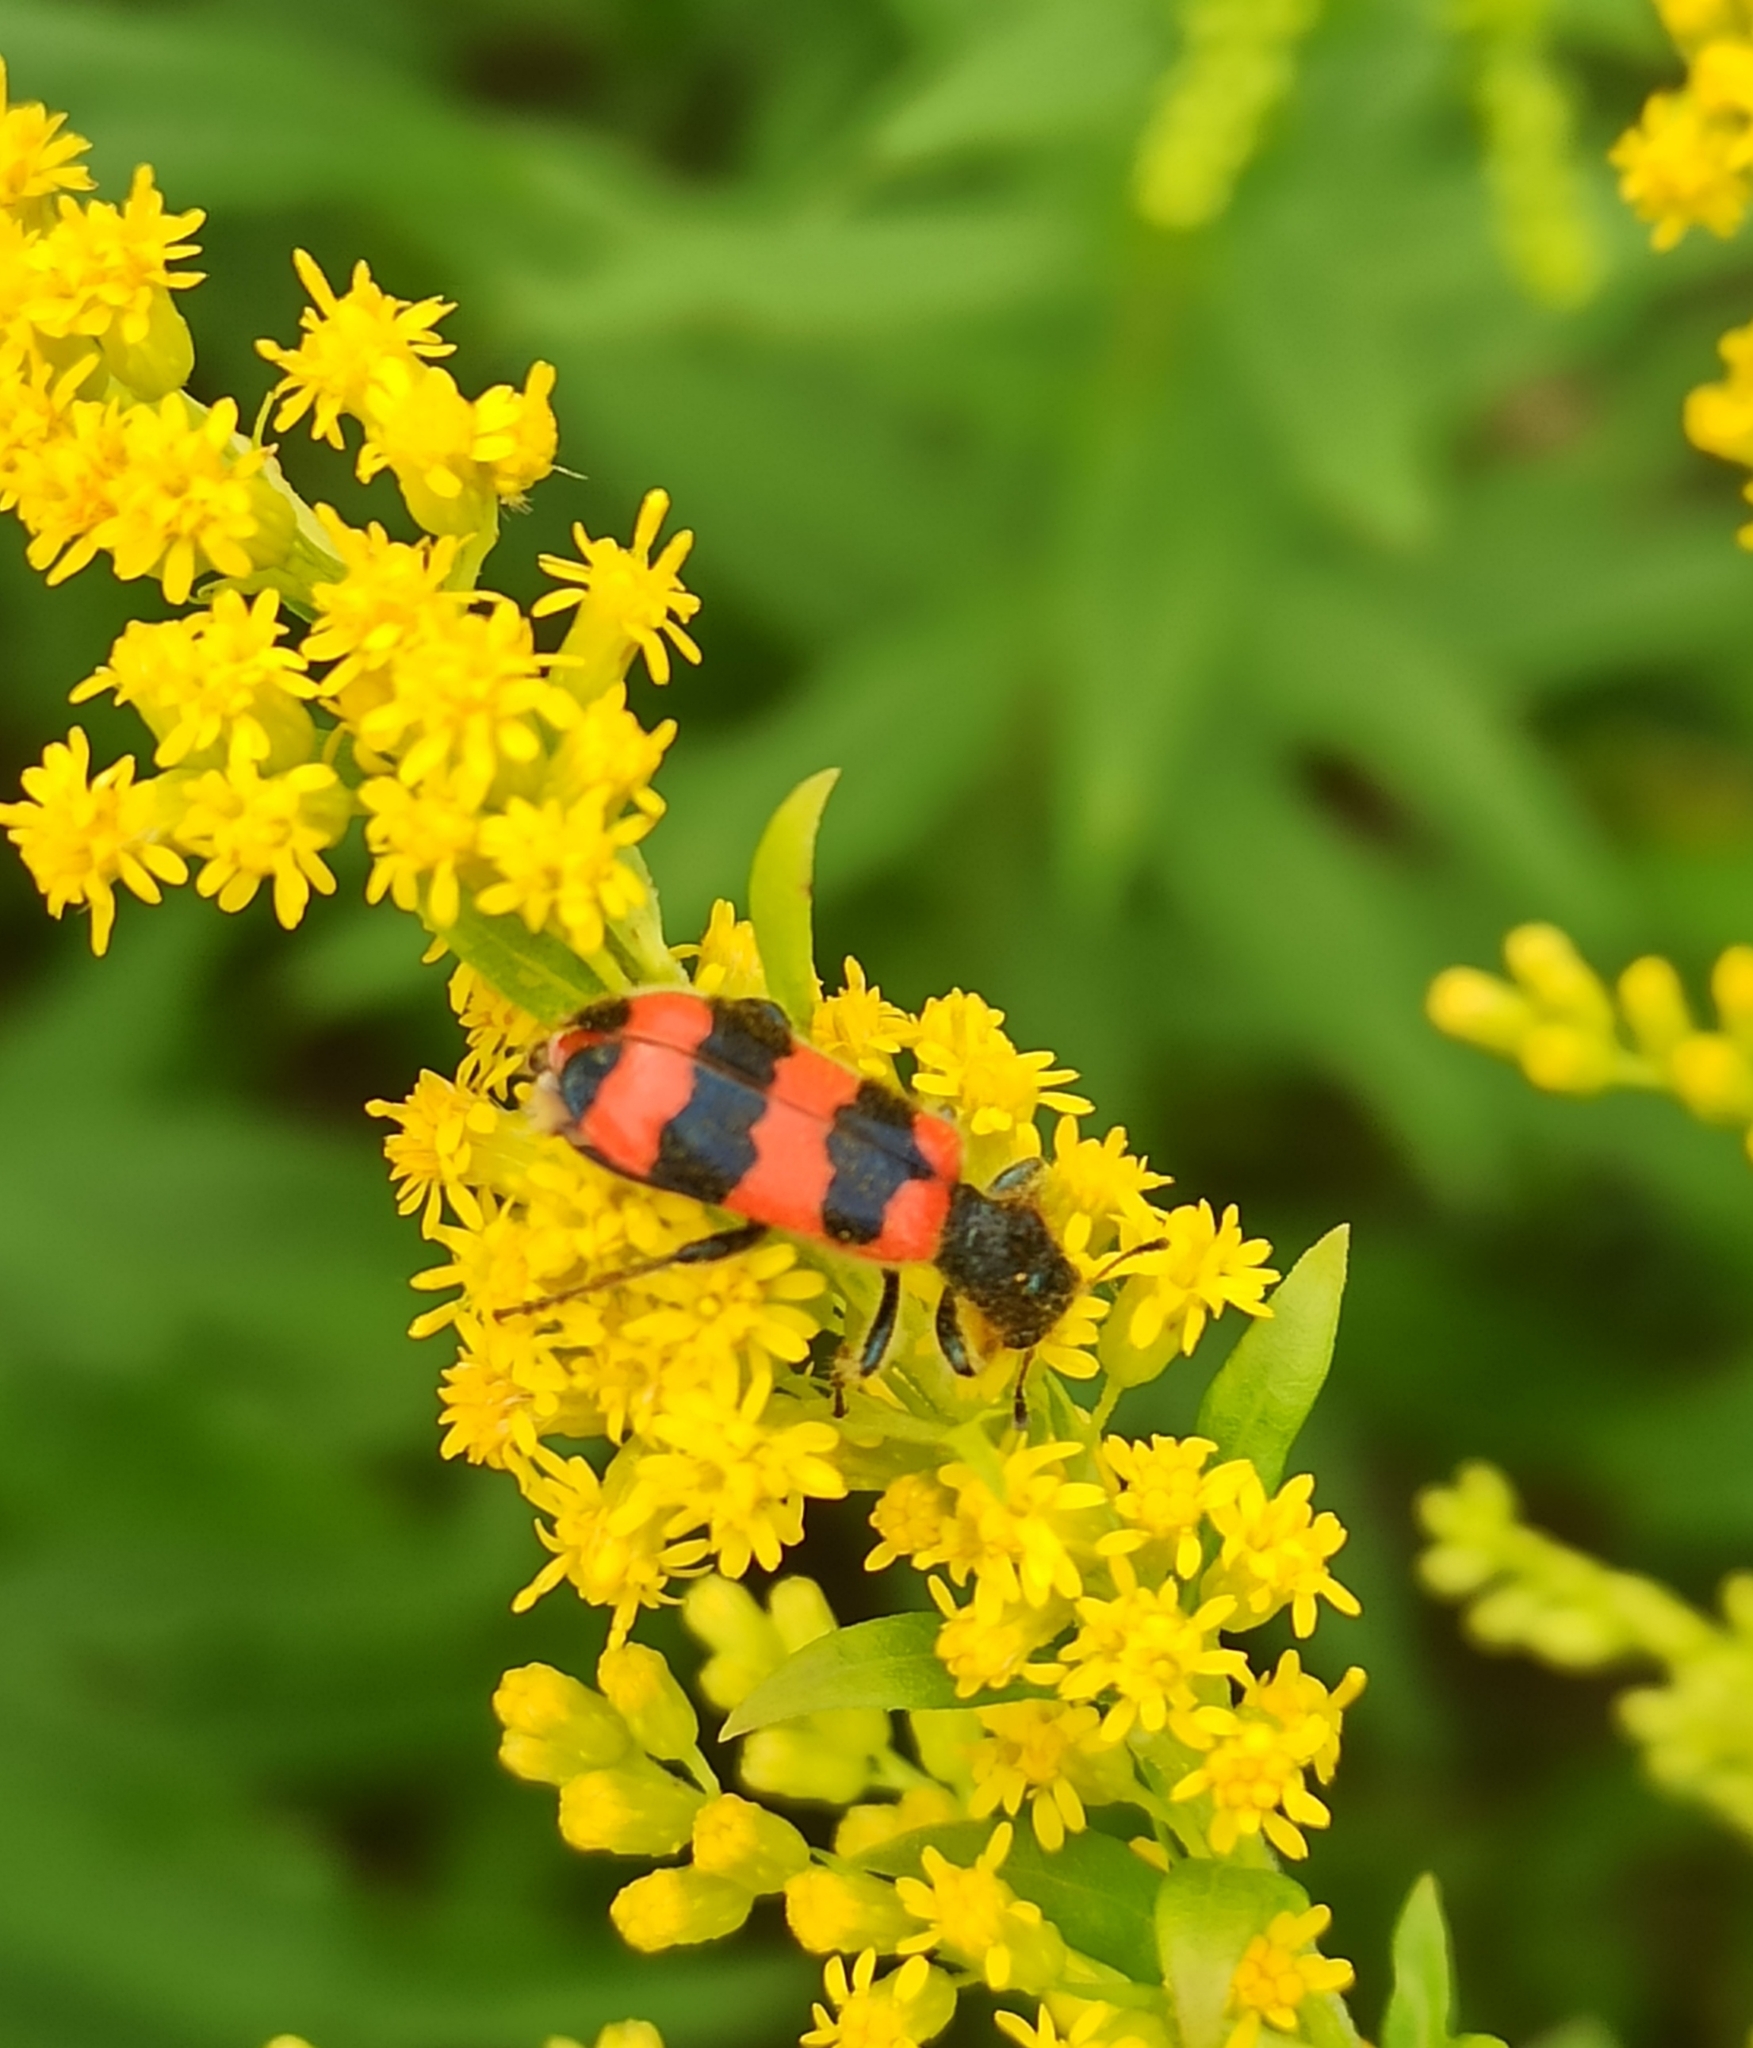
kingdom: Animalia
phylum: Arthropoda
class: Insecta
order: Coleoptera
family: Cleridae
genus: Trichodes
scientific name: Trichodes apiarius
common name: Bee-eating beetle
